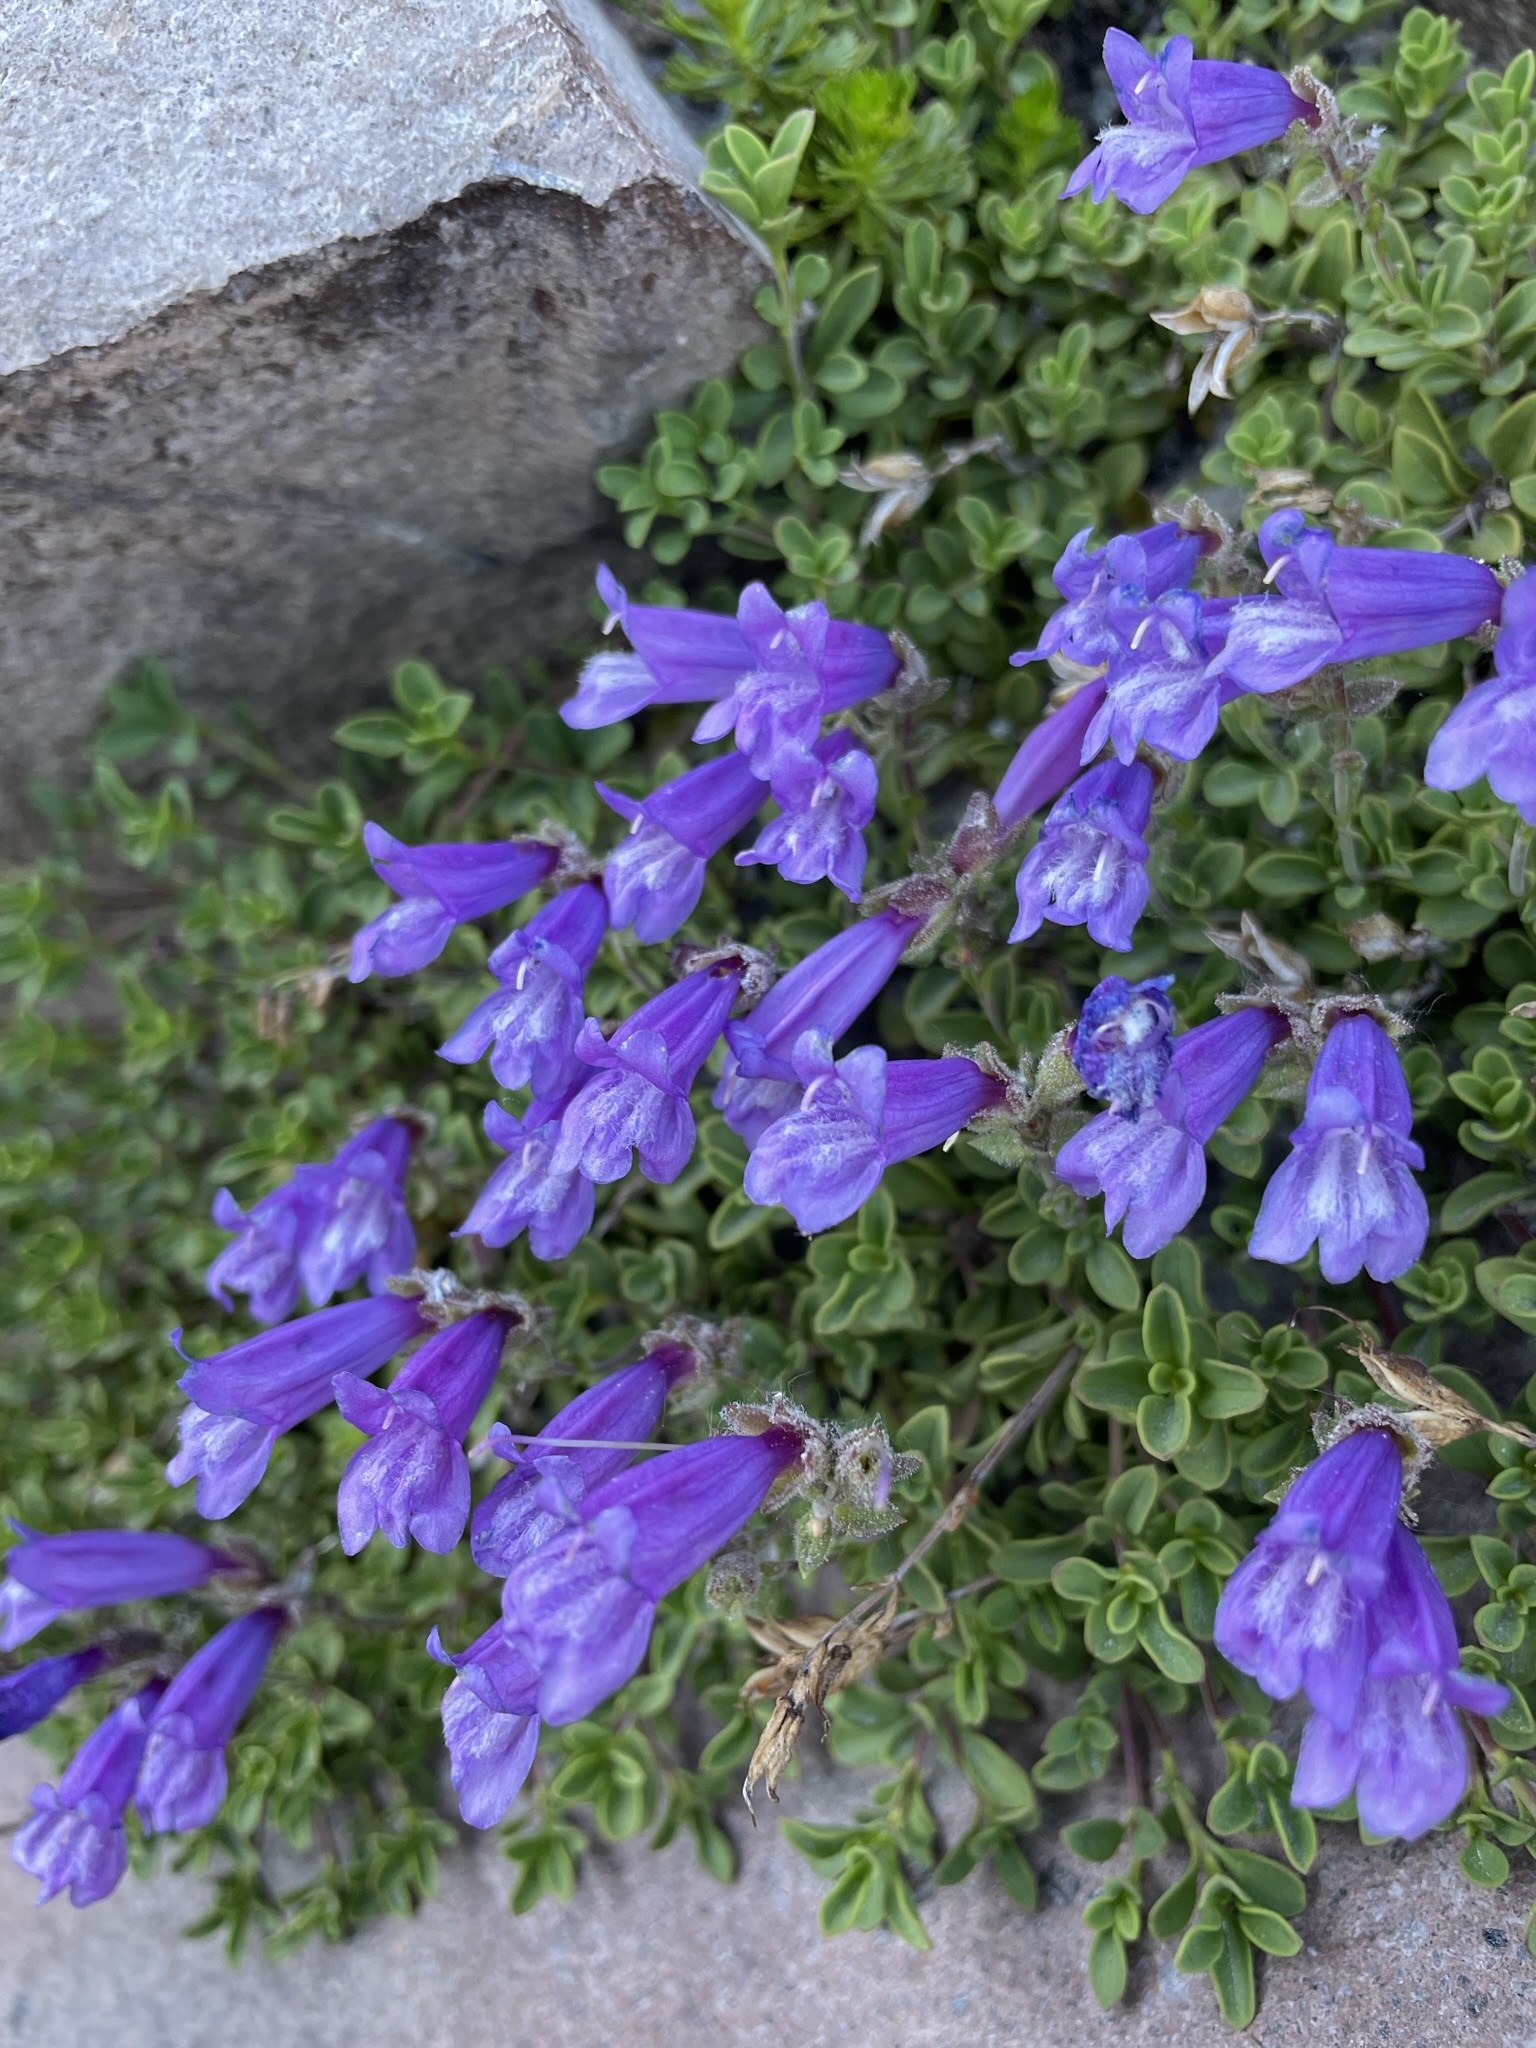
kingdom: Plantae
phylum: Tracheophyta
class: Magnoliopsida
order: Lamiales
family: Plantaginaceae
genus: Penstemon
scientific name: Penstemon davidsonii
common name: Davidson's penstemon
